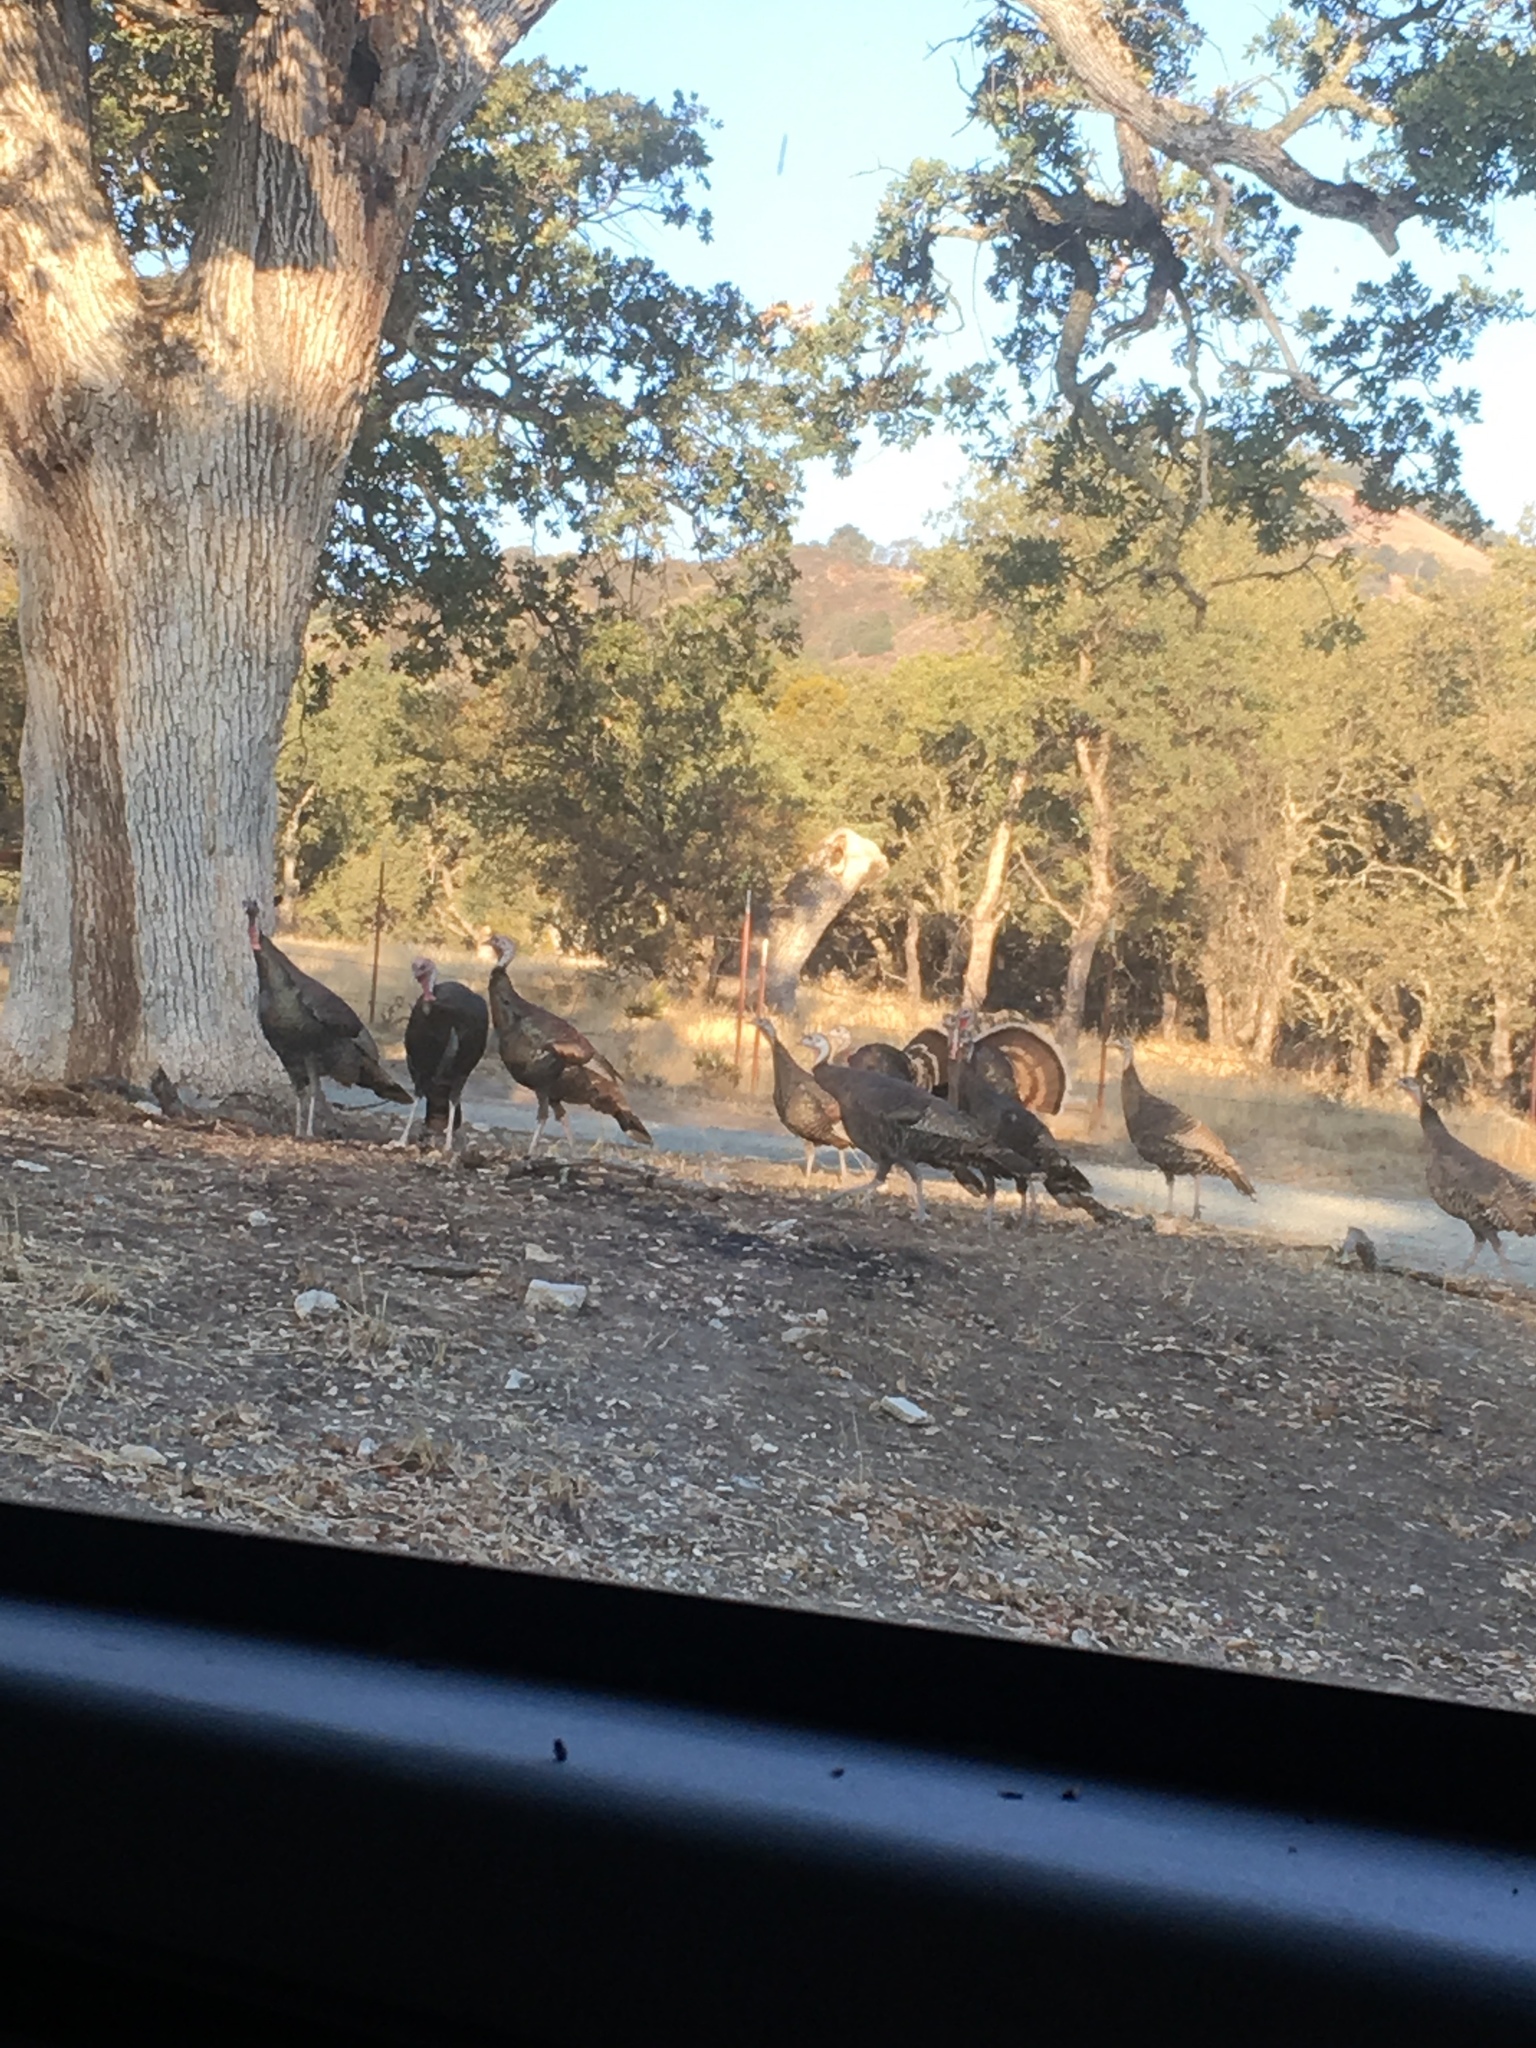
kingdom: Animalia
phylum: Chordata
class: Aves
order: Galliformes
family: Phasianidae
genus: Meleagris
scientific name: Meleagris gallopavo
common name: Wild turkey
